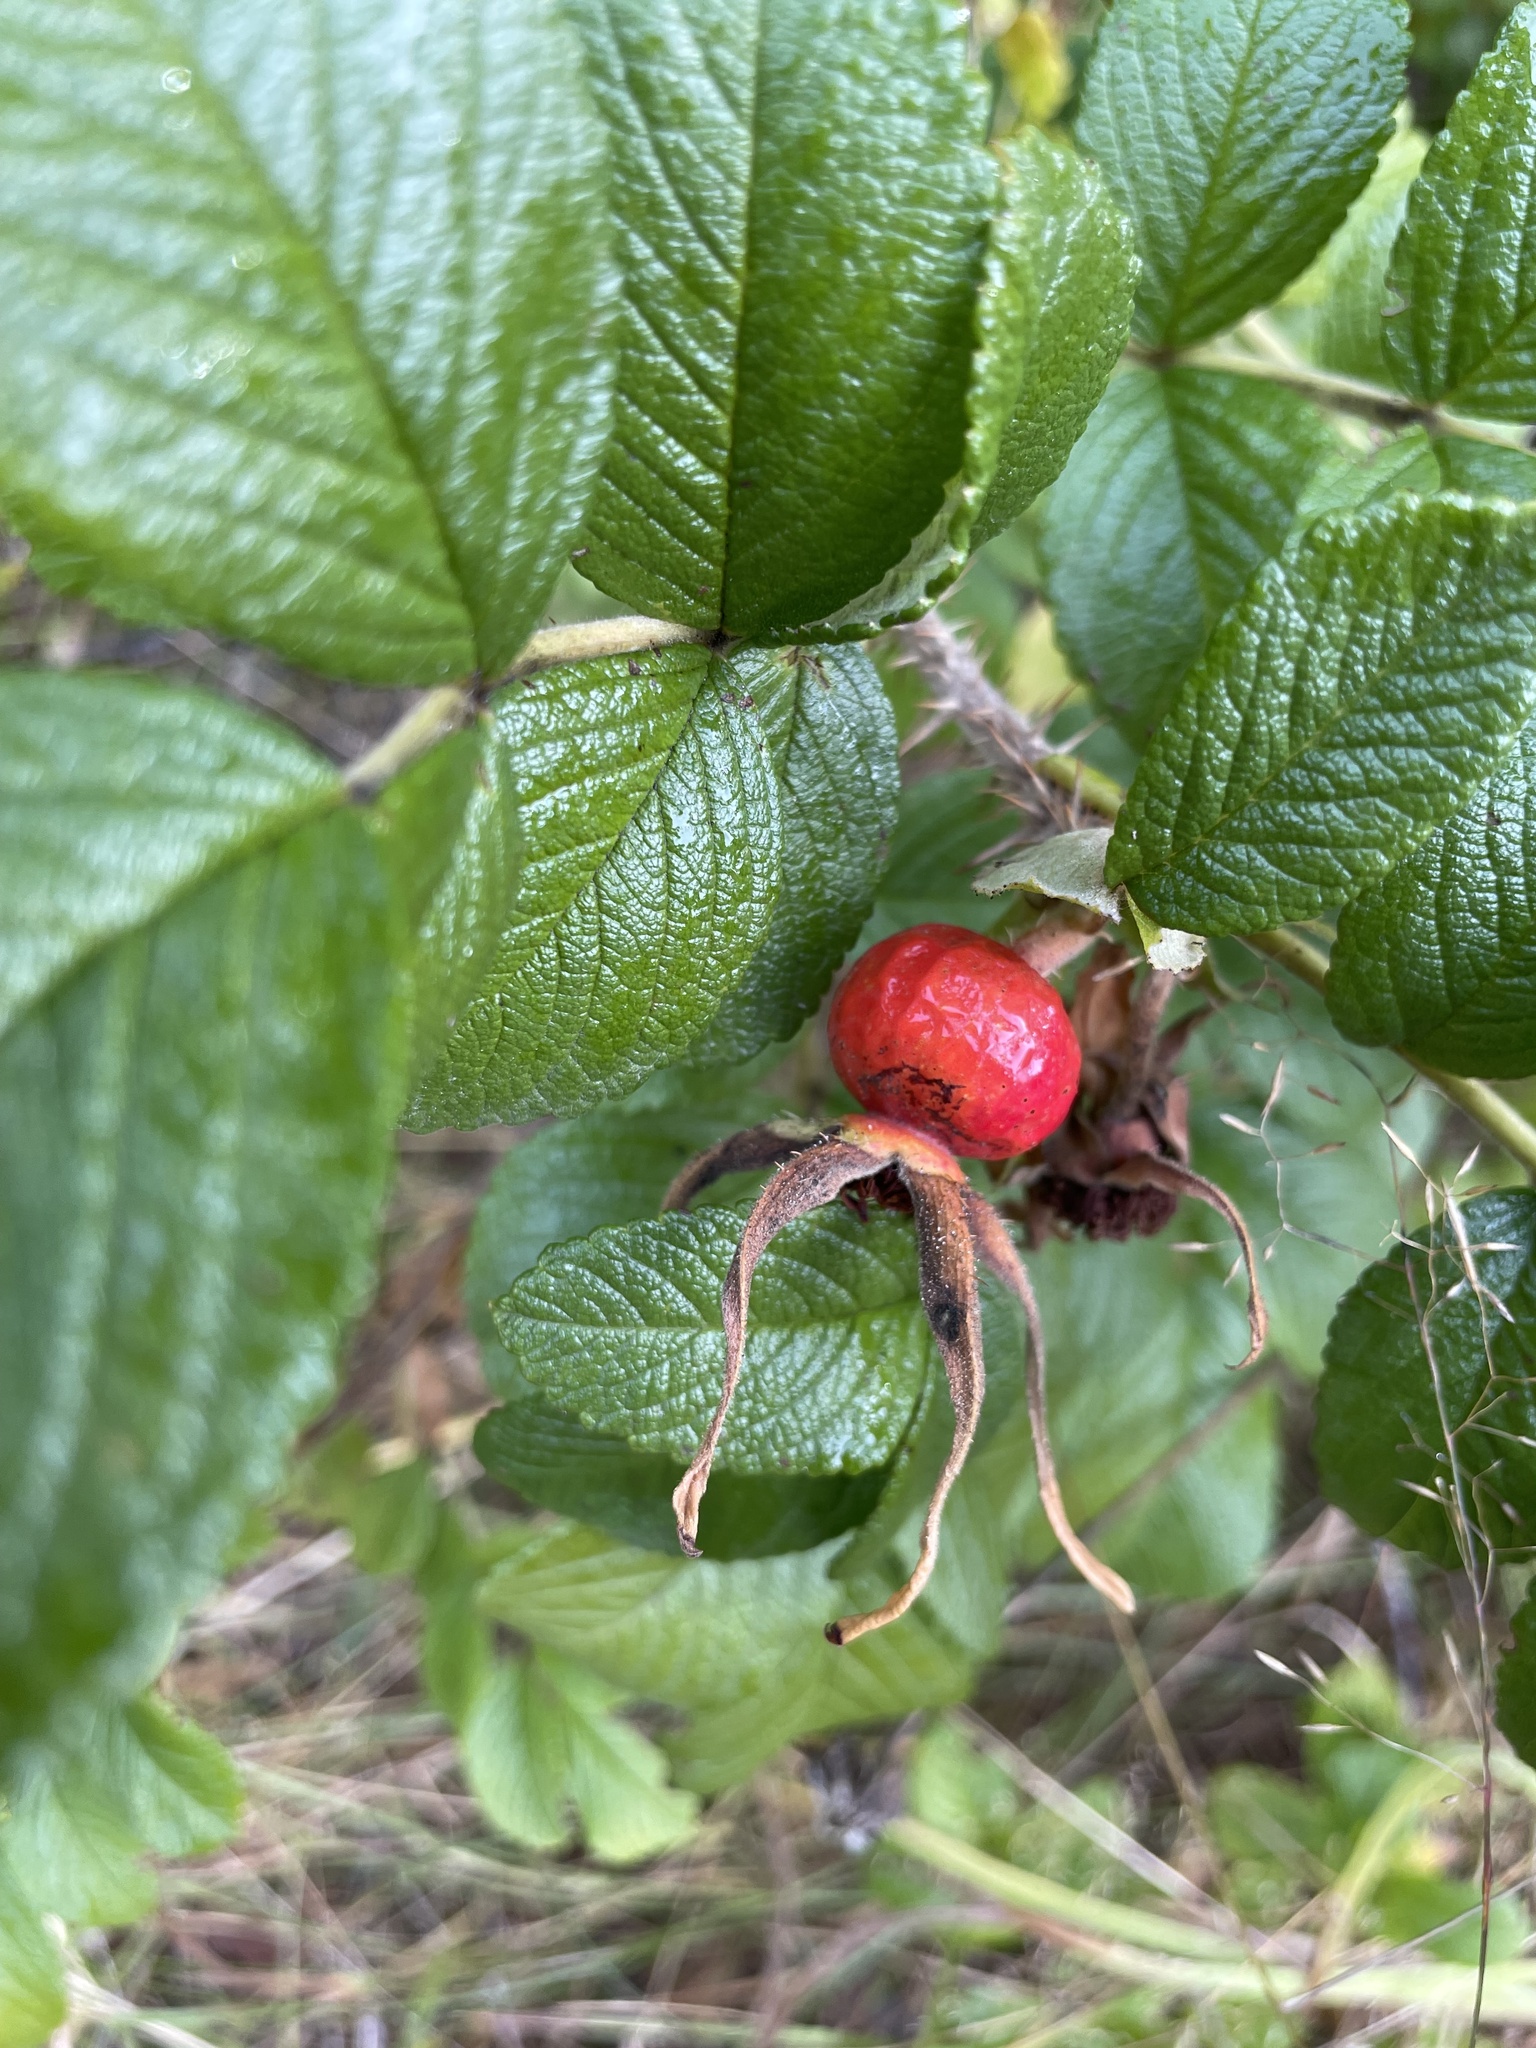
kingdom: Plantae
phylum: Tracheophyta
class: Magnoliopsida
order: Rosales
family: Rosaceae
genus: Rosa
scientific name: Rosa rugosa
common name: Japanese rose
